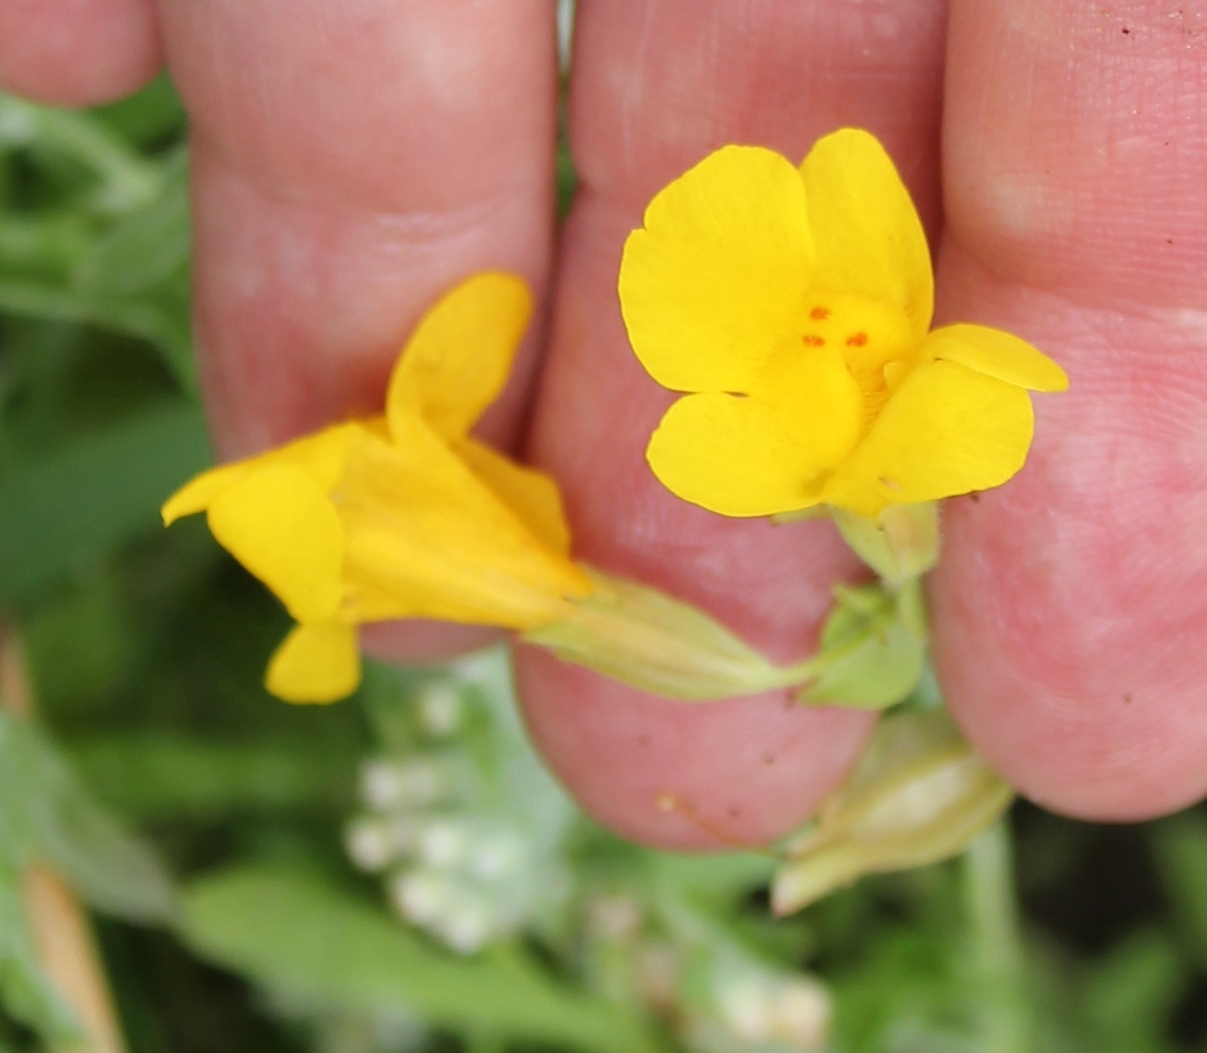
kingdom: Plantae
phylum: Tracheophyta
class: Magnoliopsida
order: Lamiales
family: Phrymaceae
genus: Erythranthe
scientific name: Erythranthe guttata
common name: Monkeyflower
